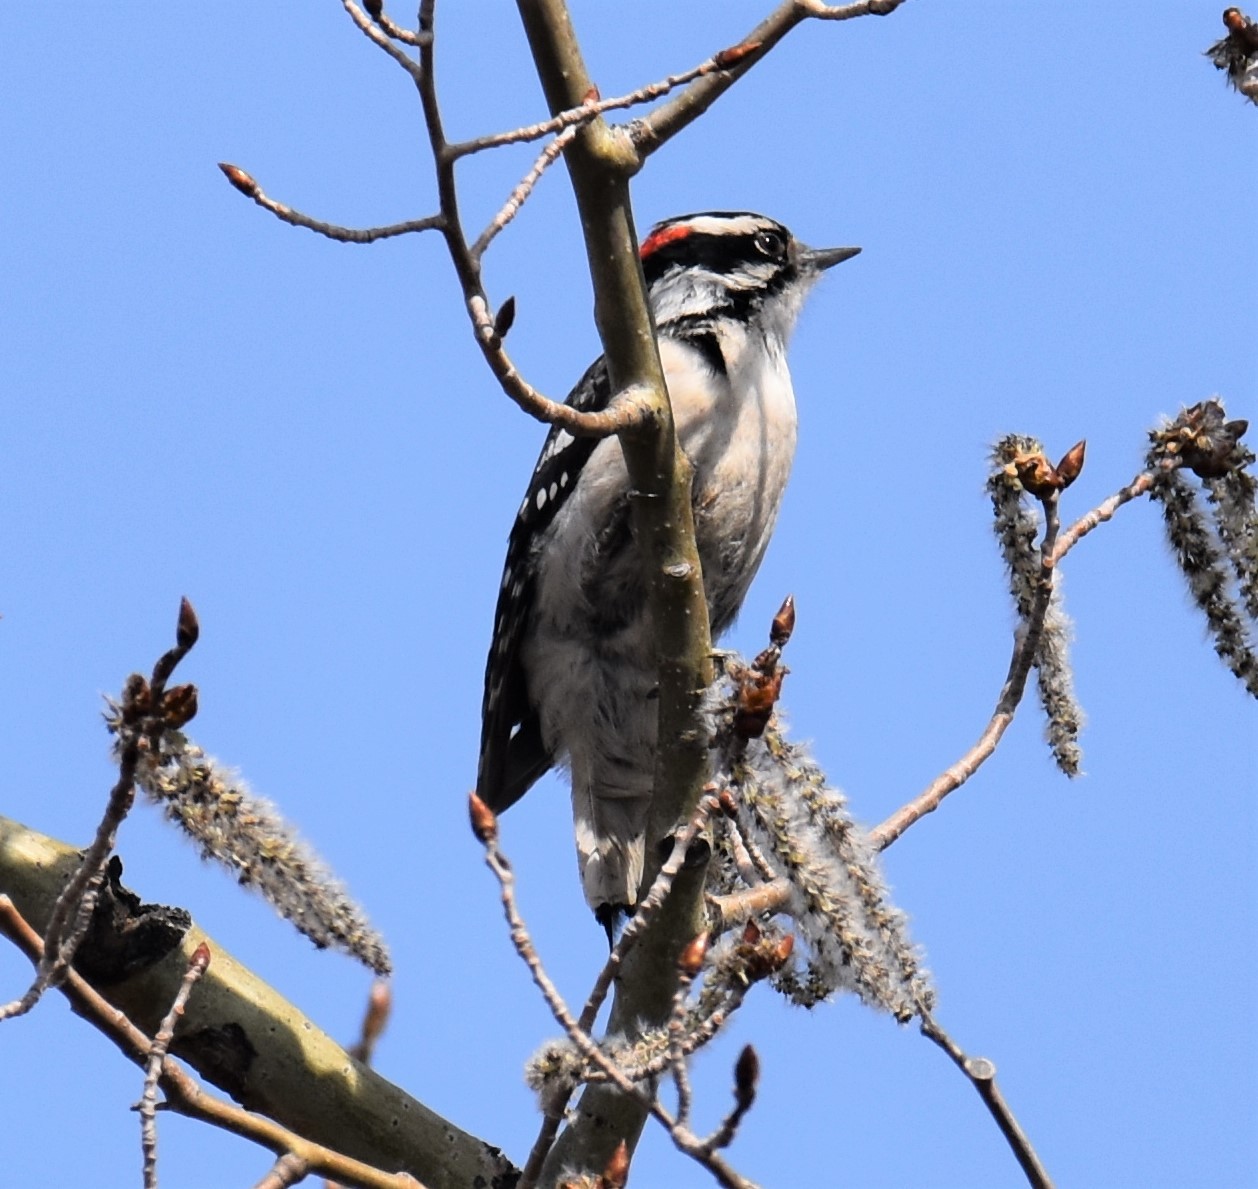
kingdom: Animalia
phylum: Chordata
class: Aves
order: Piciformes
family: Picidae
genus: Dryobates
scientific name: Dryobates pubescens
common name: Downy woodpecker
